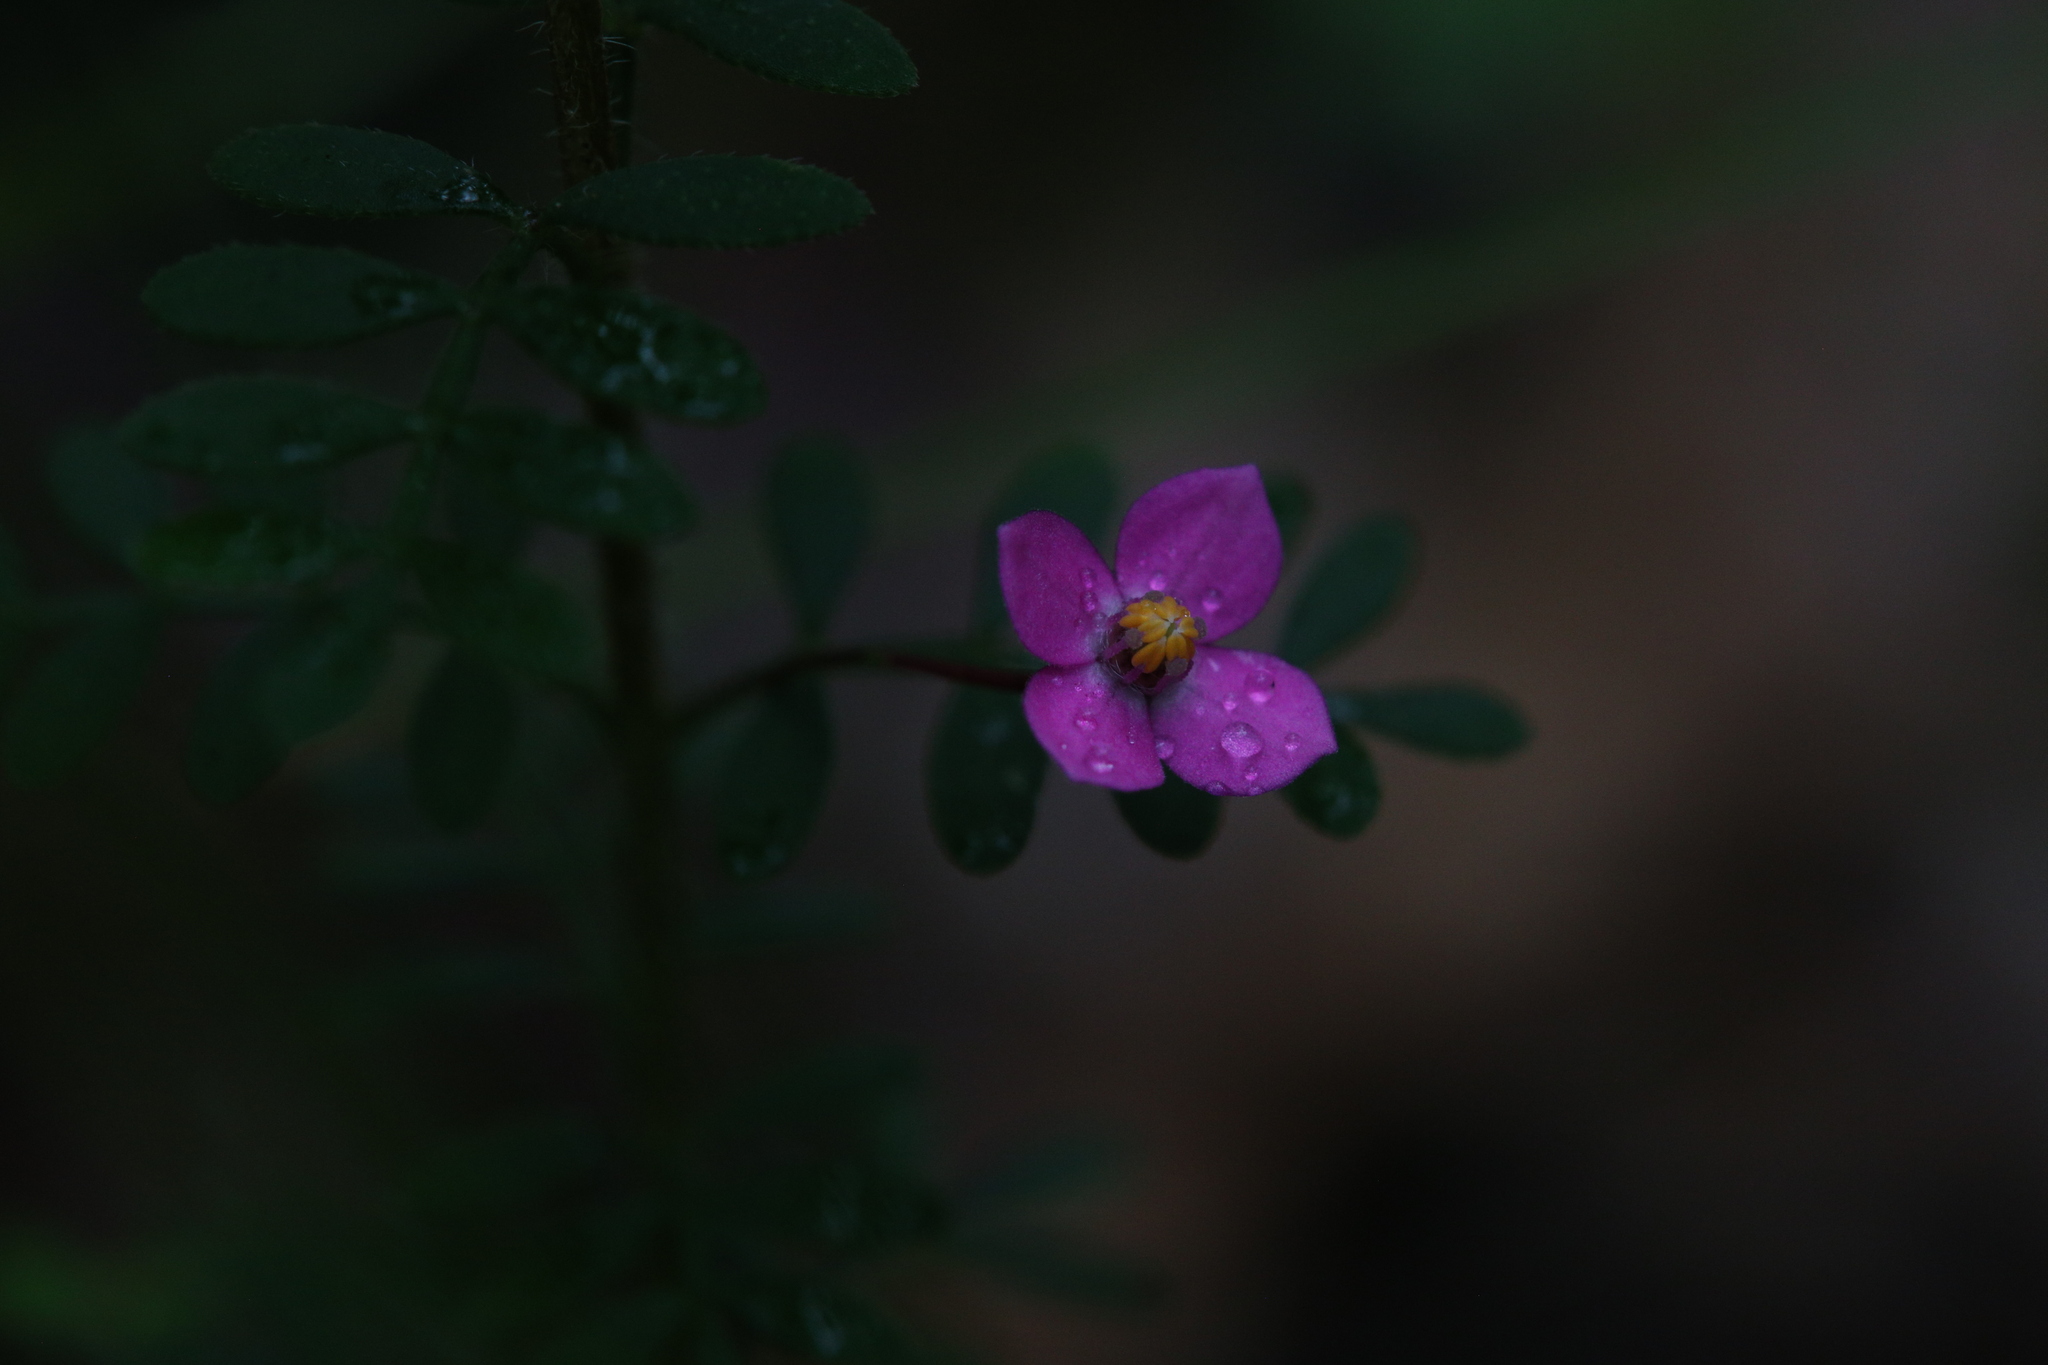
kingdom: Plantae
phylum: Tracheophyta
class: Magnoliopsida
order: Sapindales
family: Rutaceae
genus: Boronia
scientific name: Boronia gracilipes
